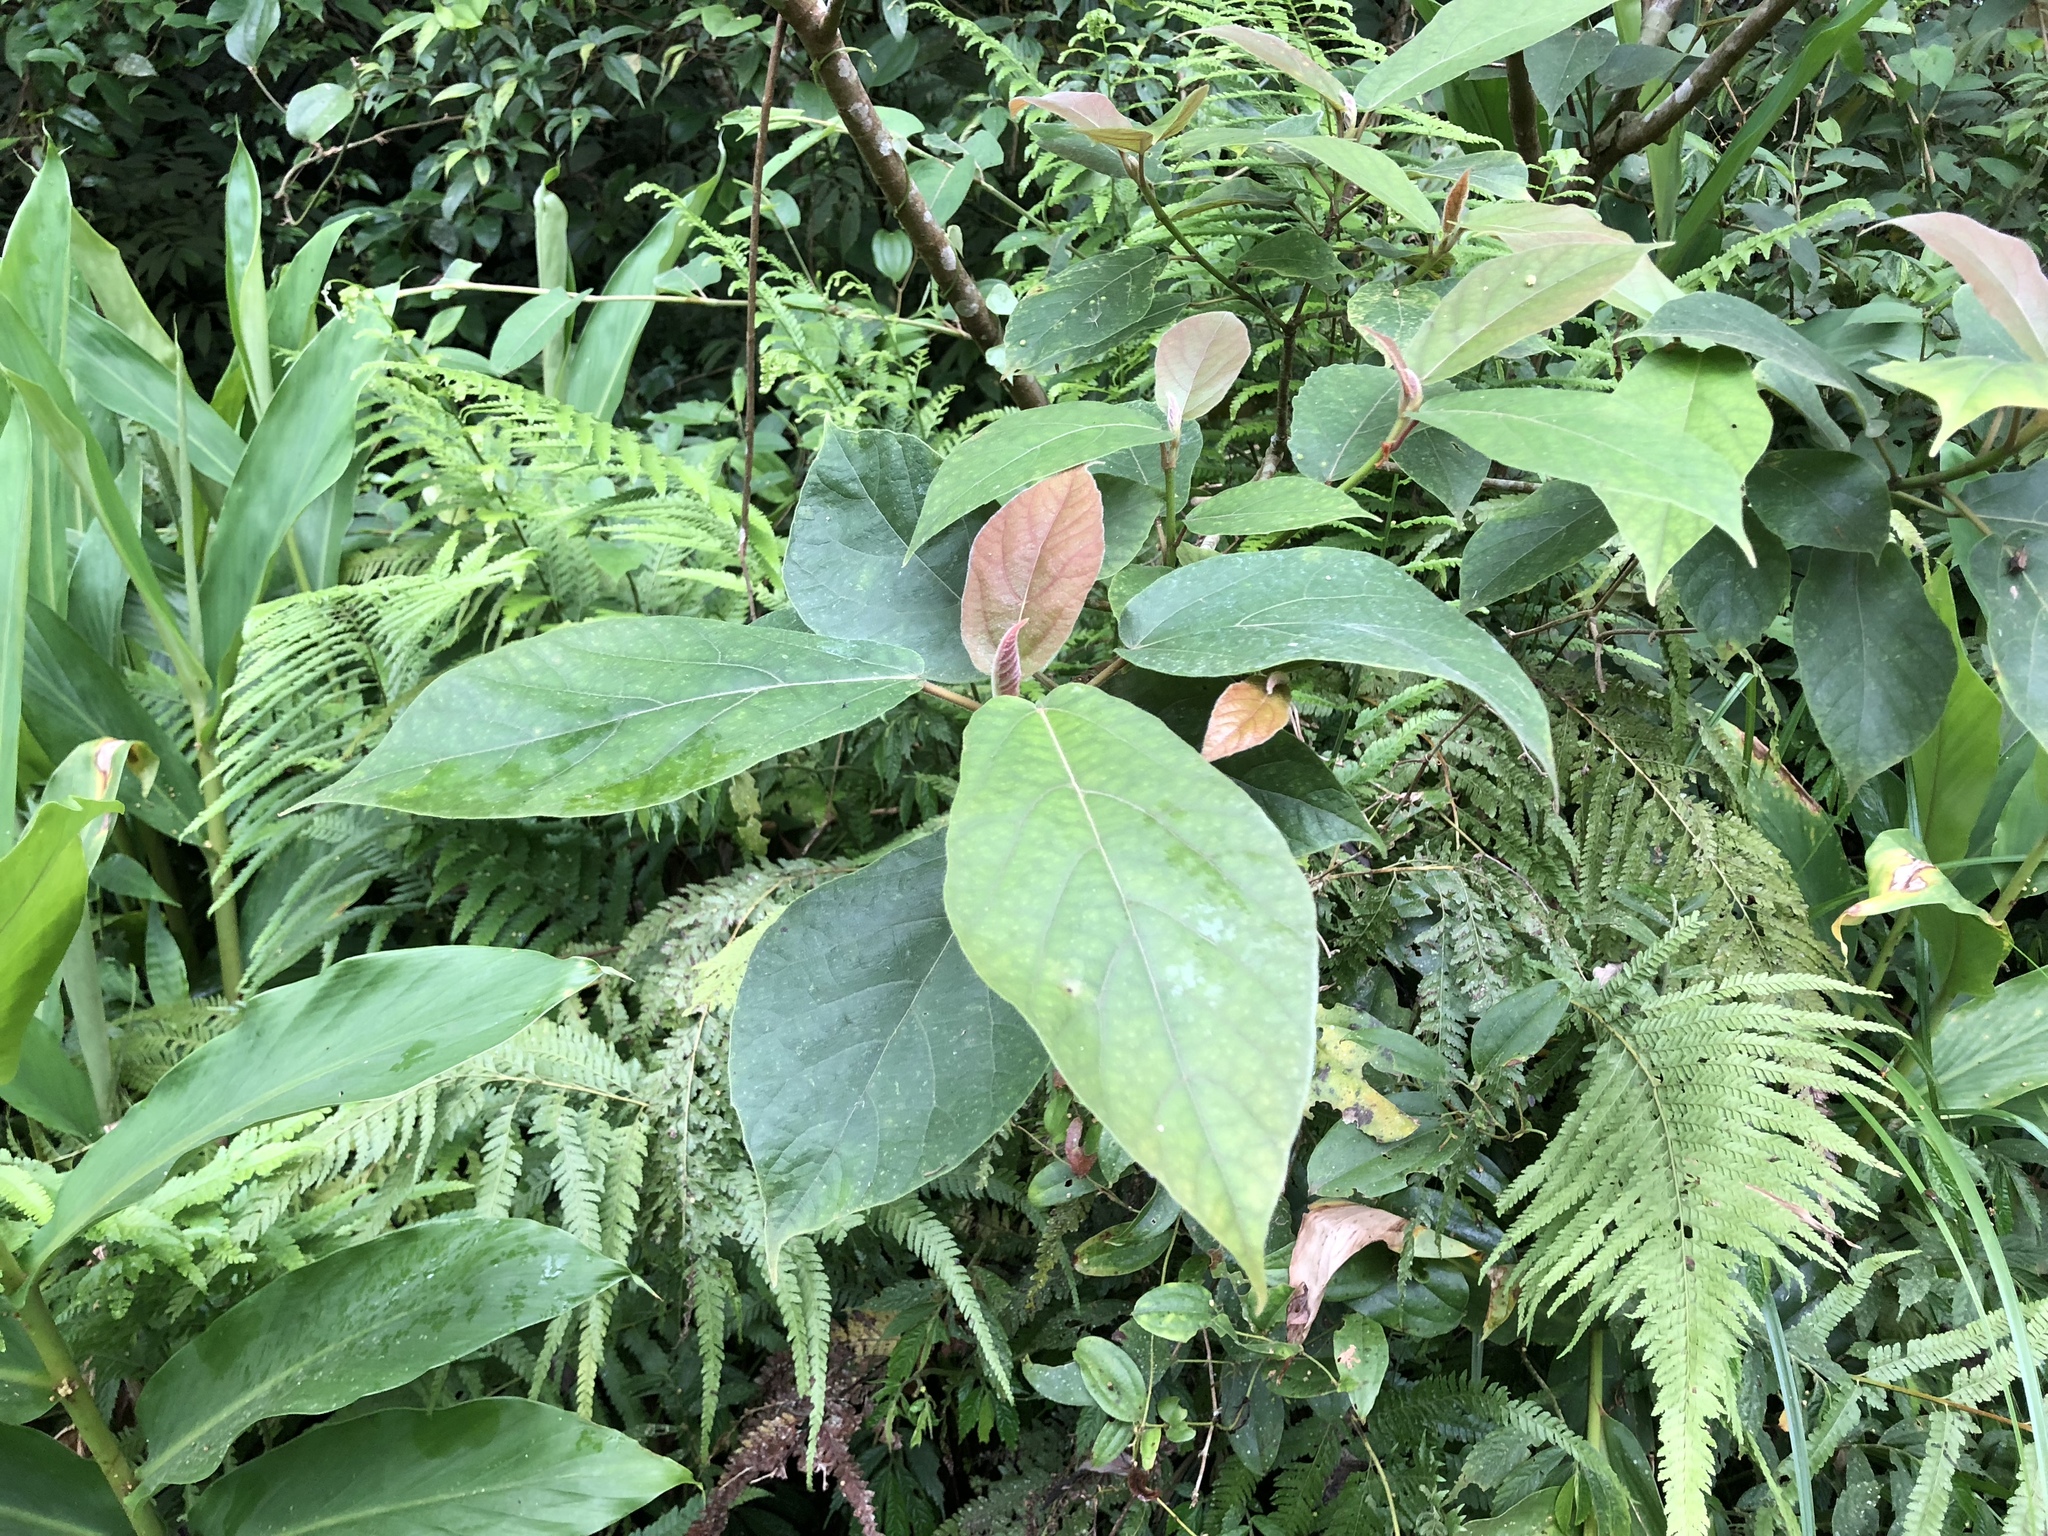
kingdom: Plantae
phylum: Tracheophyta
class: Magnoliopsida
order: Rosales
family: Moraceae
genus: Ficus
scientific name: Ficus erecta
